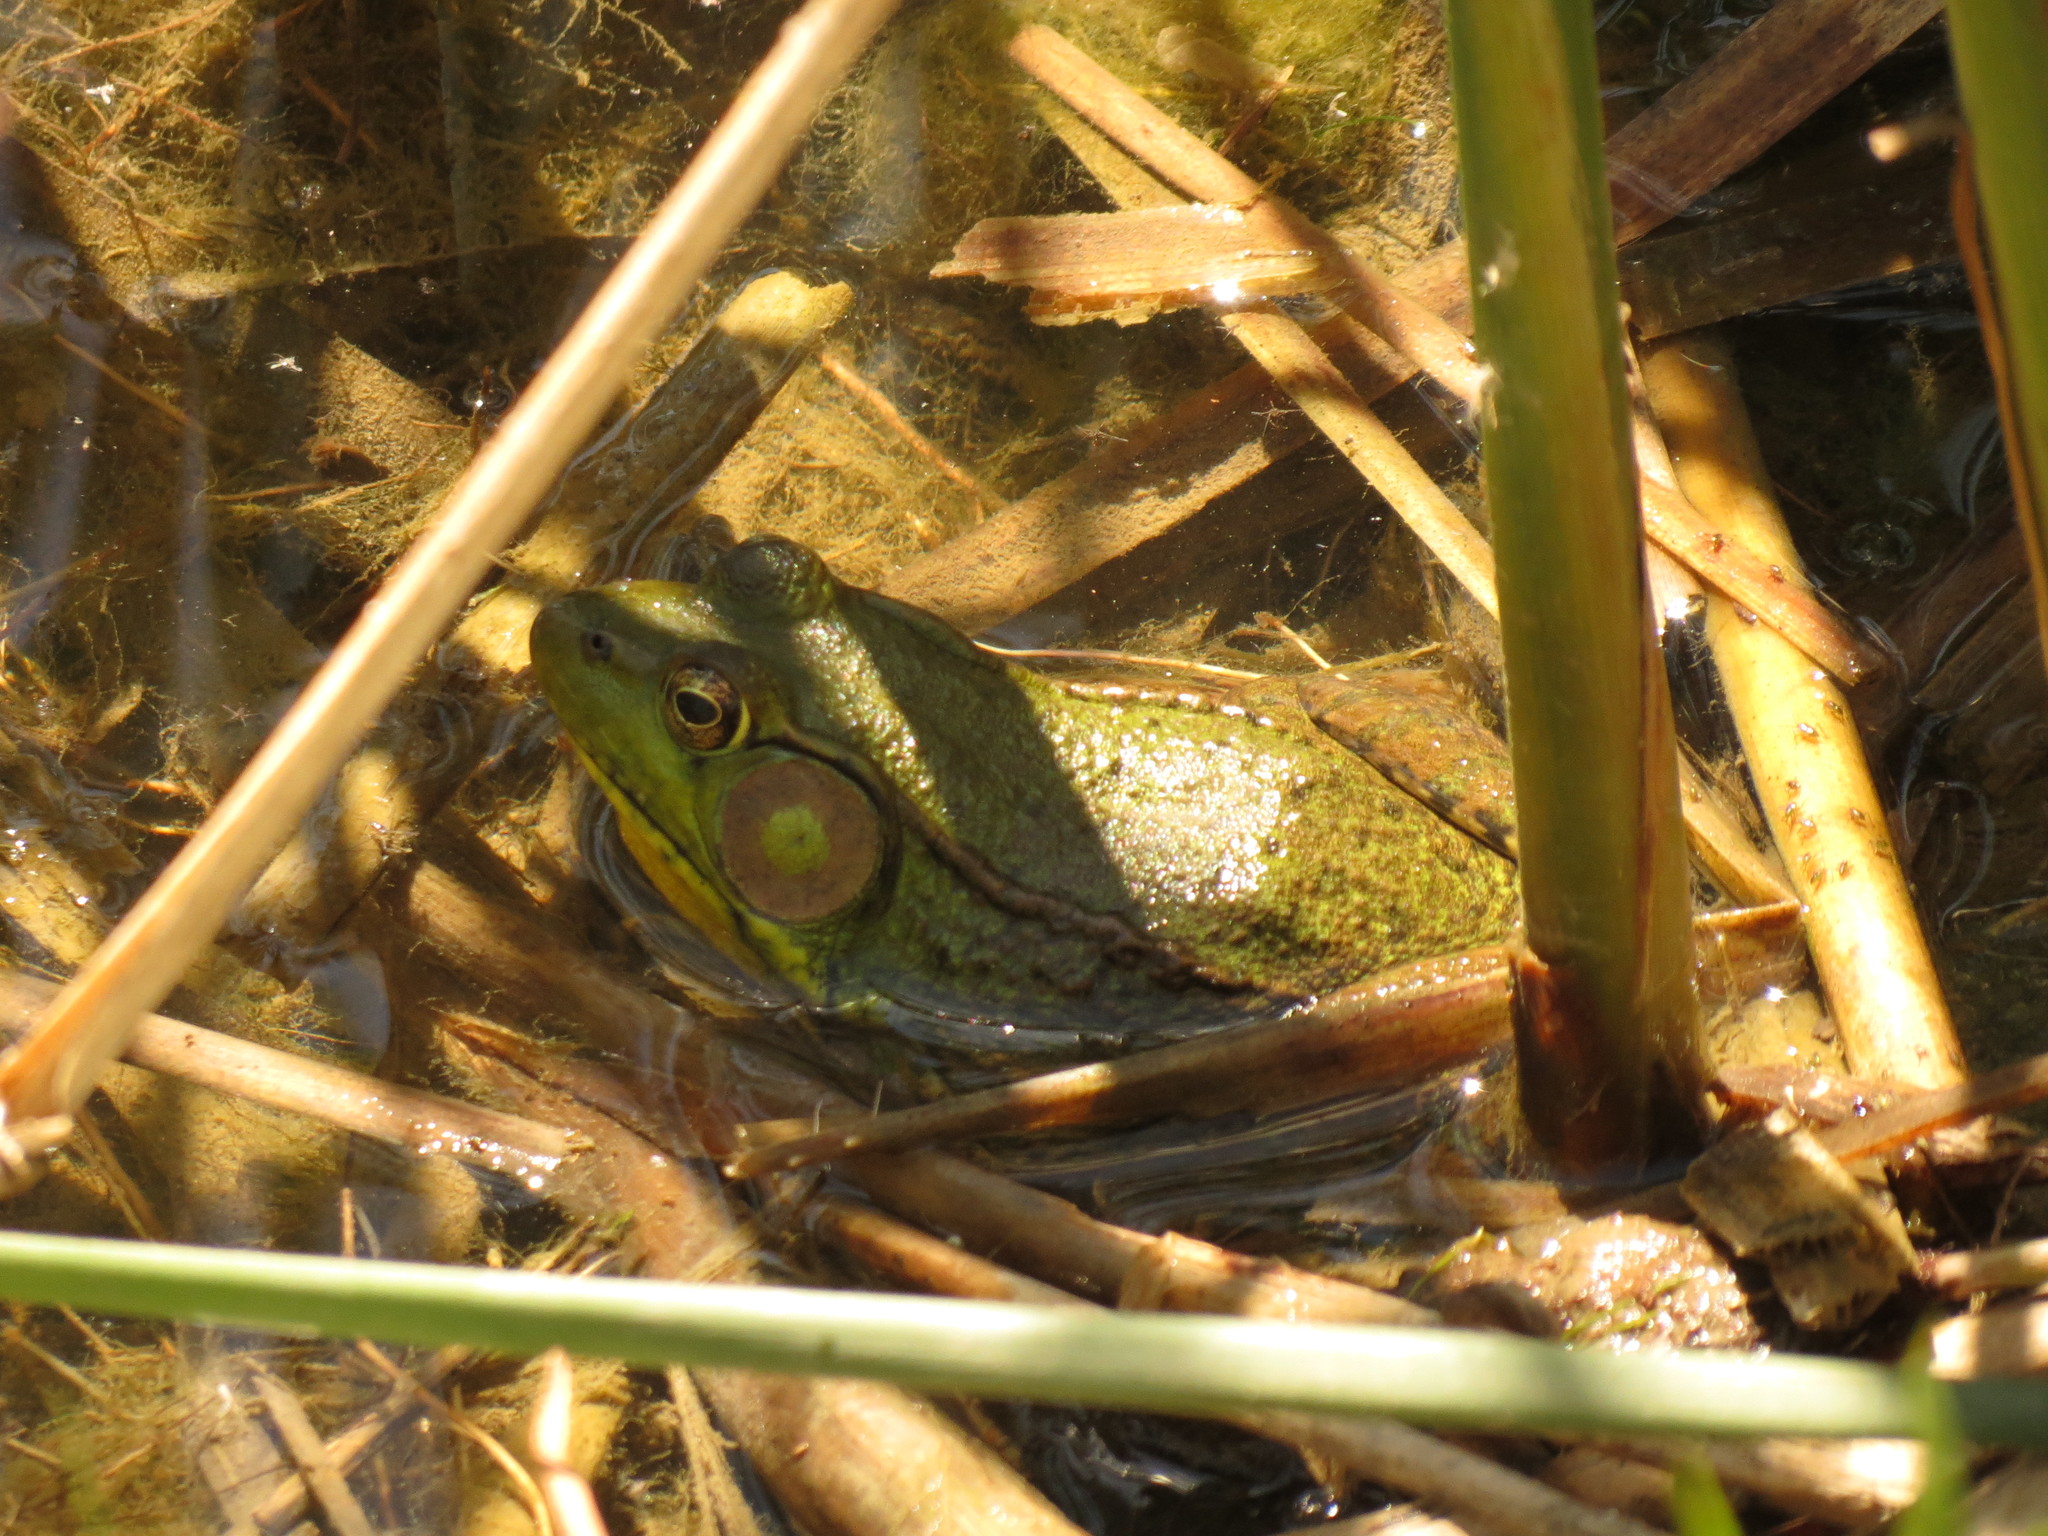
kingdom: Animalia
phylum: Chordata
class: Amphibia
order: Anura
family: Ranidae
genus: Lithobates
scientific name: Lithobates clamitans
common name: Green frog
